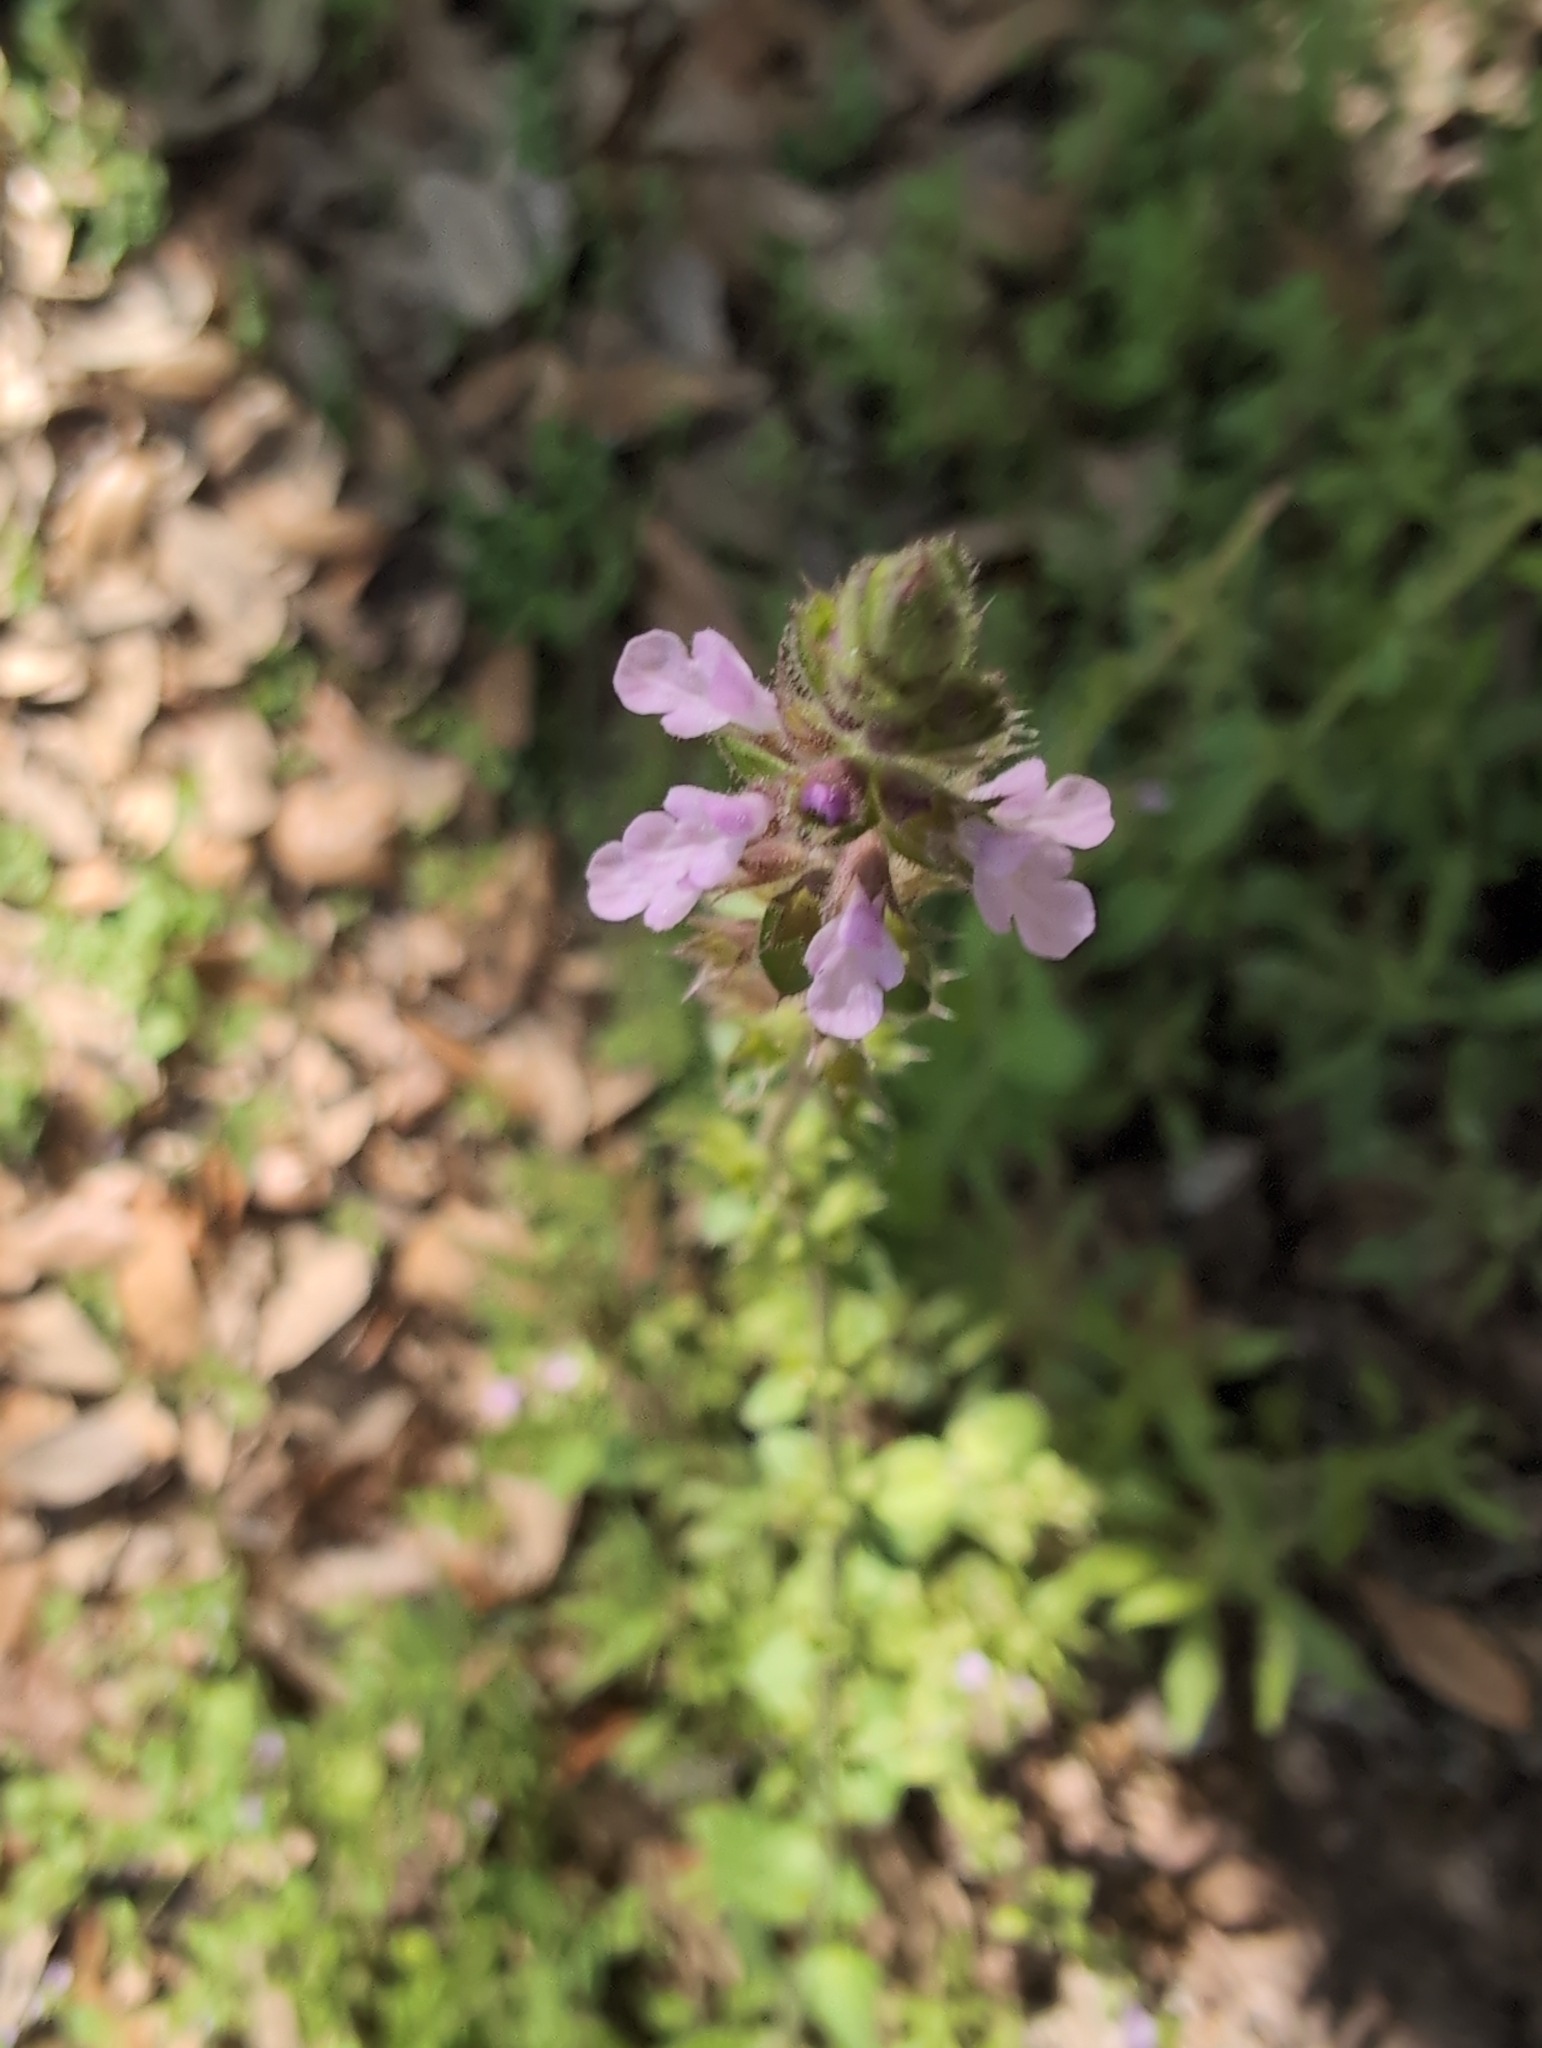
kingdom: Plantae
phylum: Tracheophyta
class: Magnoliopsida
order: Lamiales
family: Lamiaceae
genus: Stachys
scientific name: Stachys
